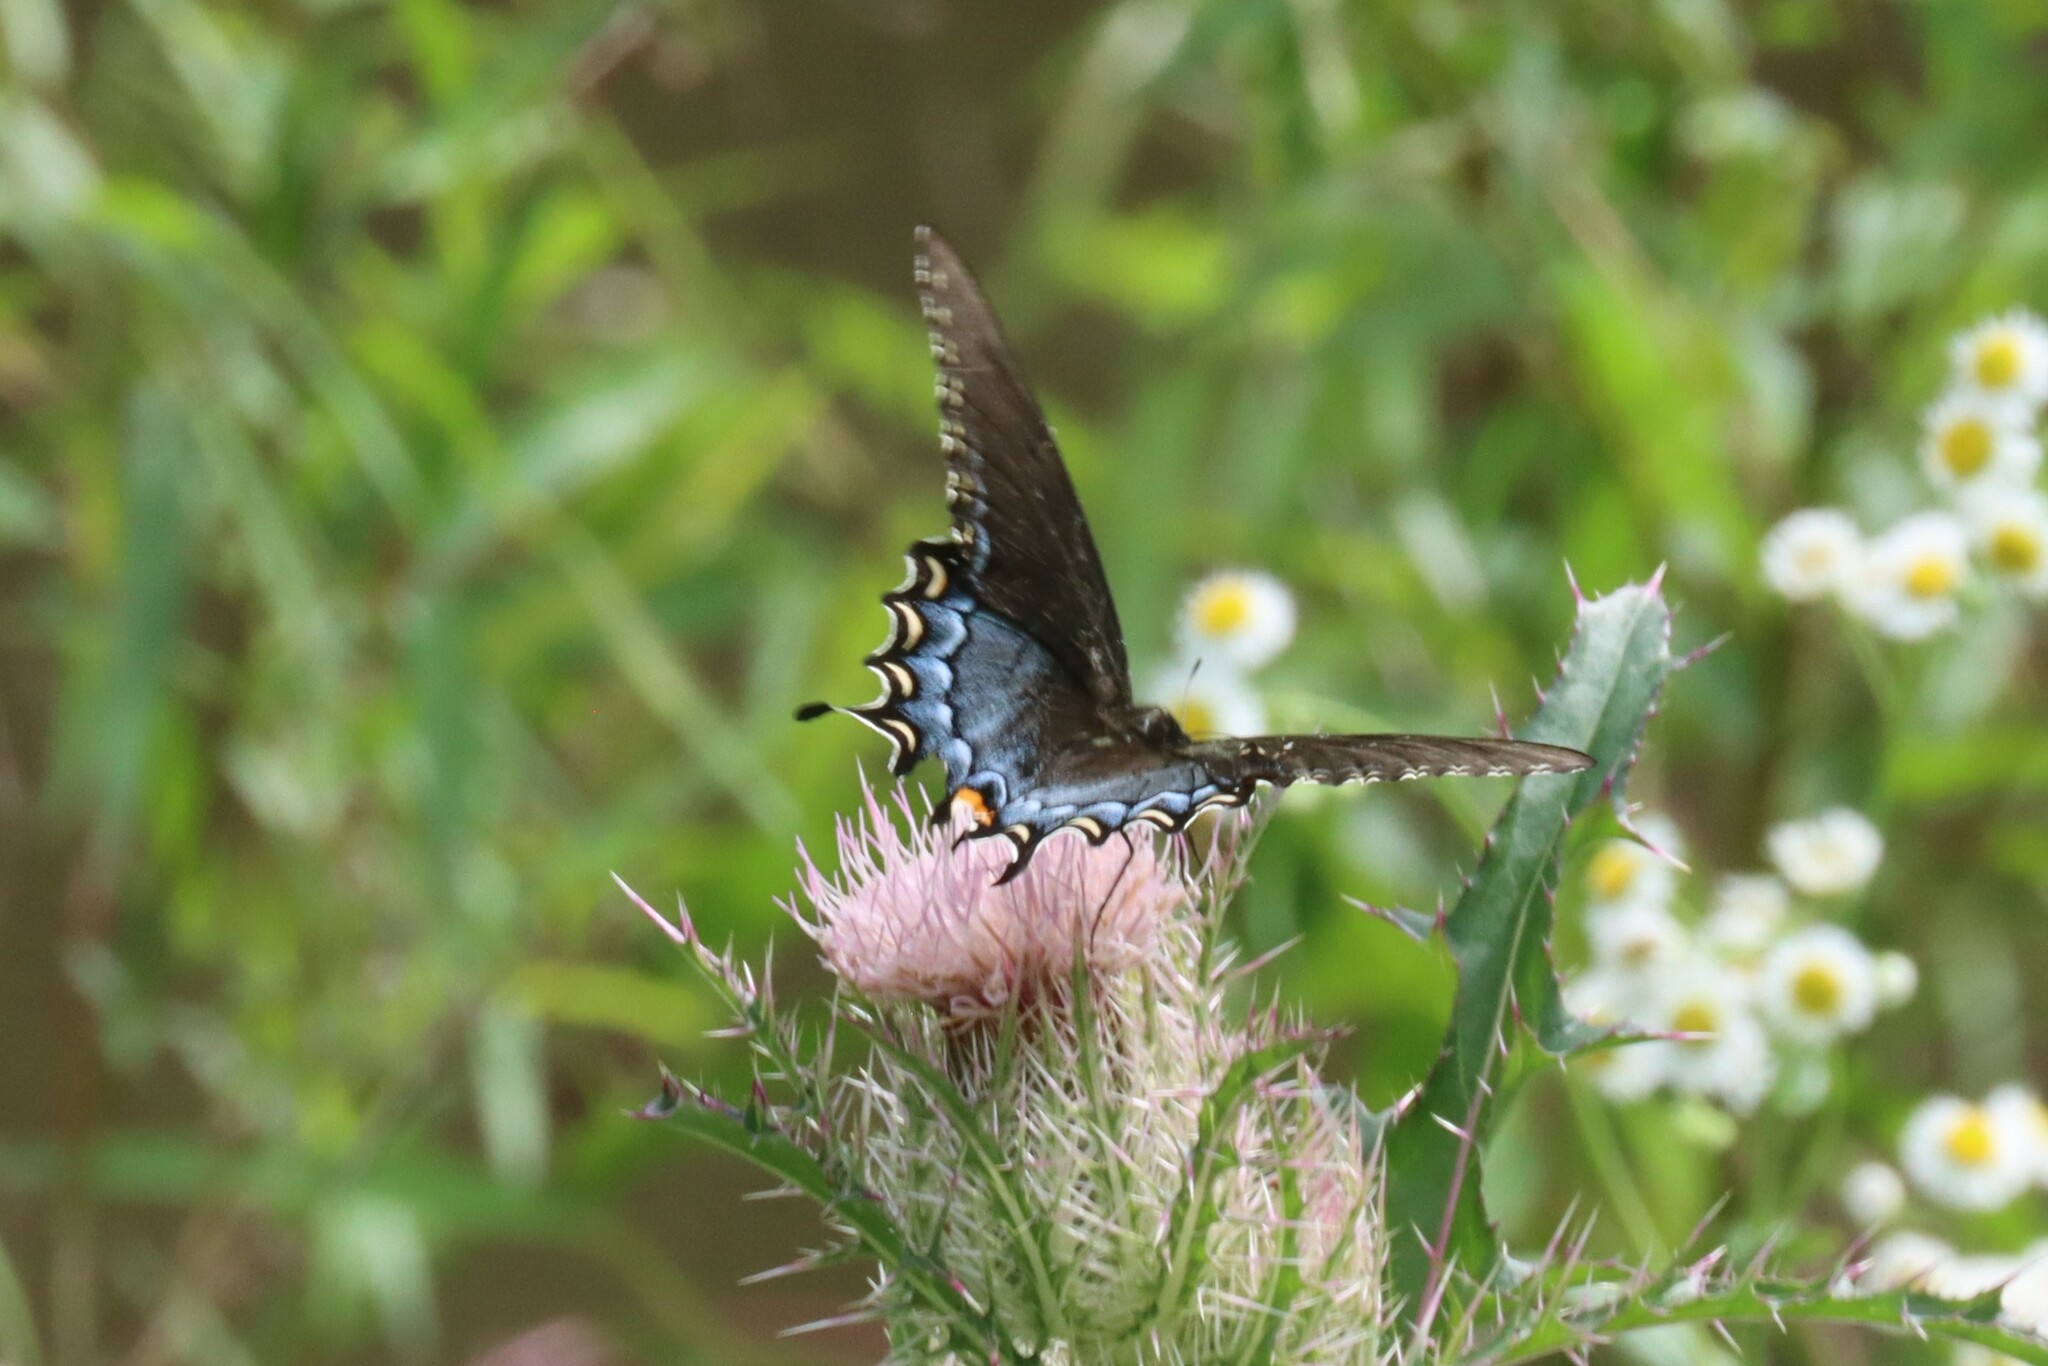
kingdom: Animalia
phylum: Arthropoda
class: Insecta
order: Lepidoptera
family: Papilionidae
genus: Papilio
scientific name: Papilio glaucus
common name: Tiger swallowtail
